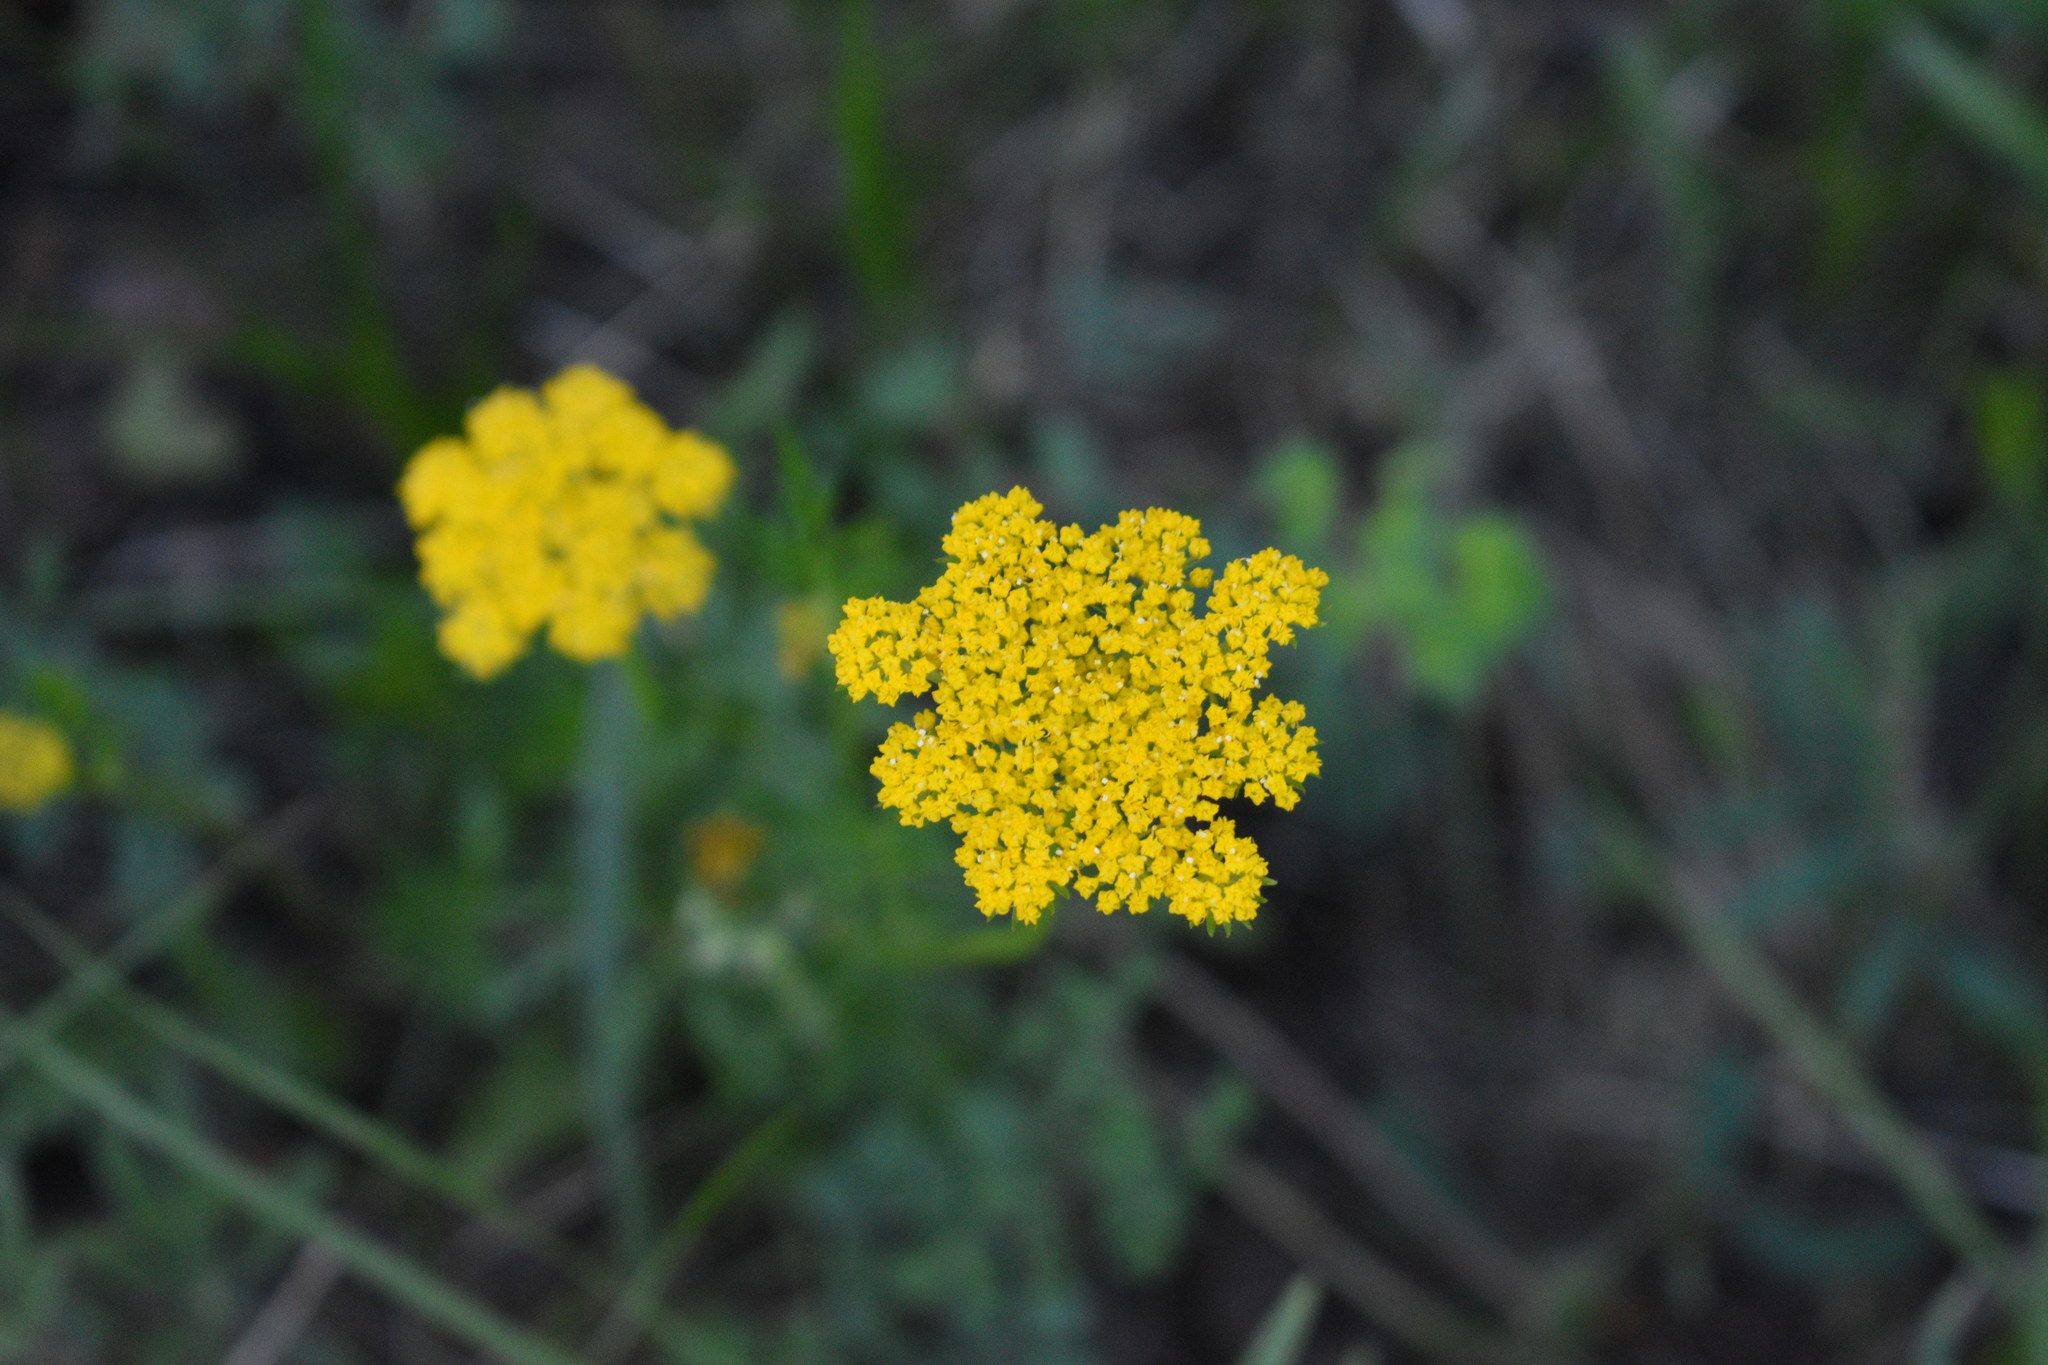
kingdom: Plantae
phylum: Tracheophyta
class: Magnoliopsida
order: Apiales
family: Apiaceae
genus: Cymopterus
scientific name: Cymopterus lemmonii
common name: Lemmon's spring-parsley
